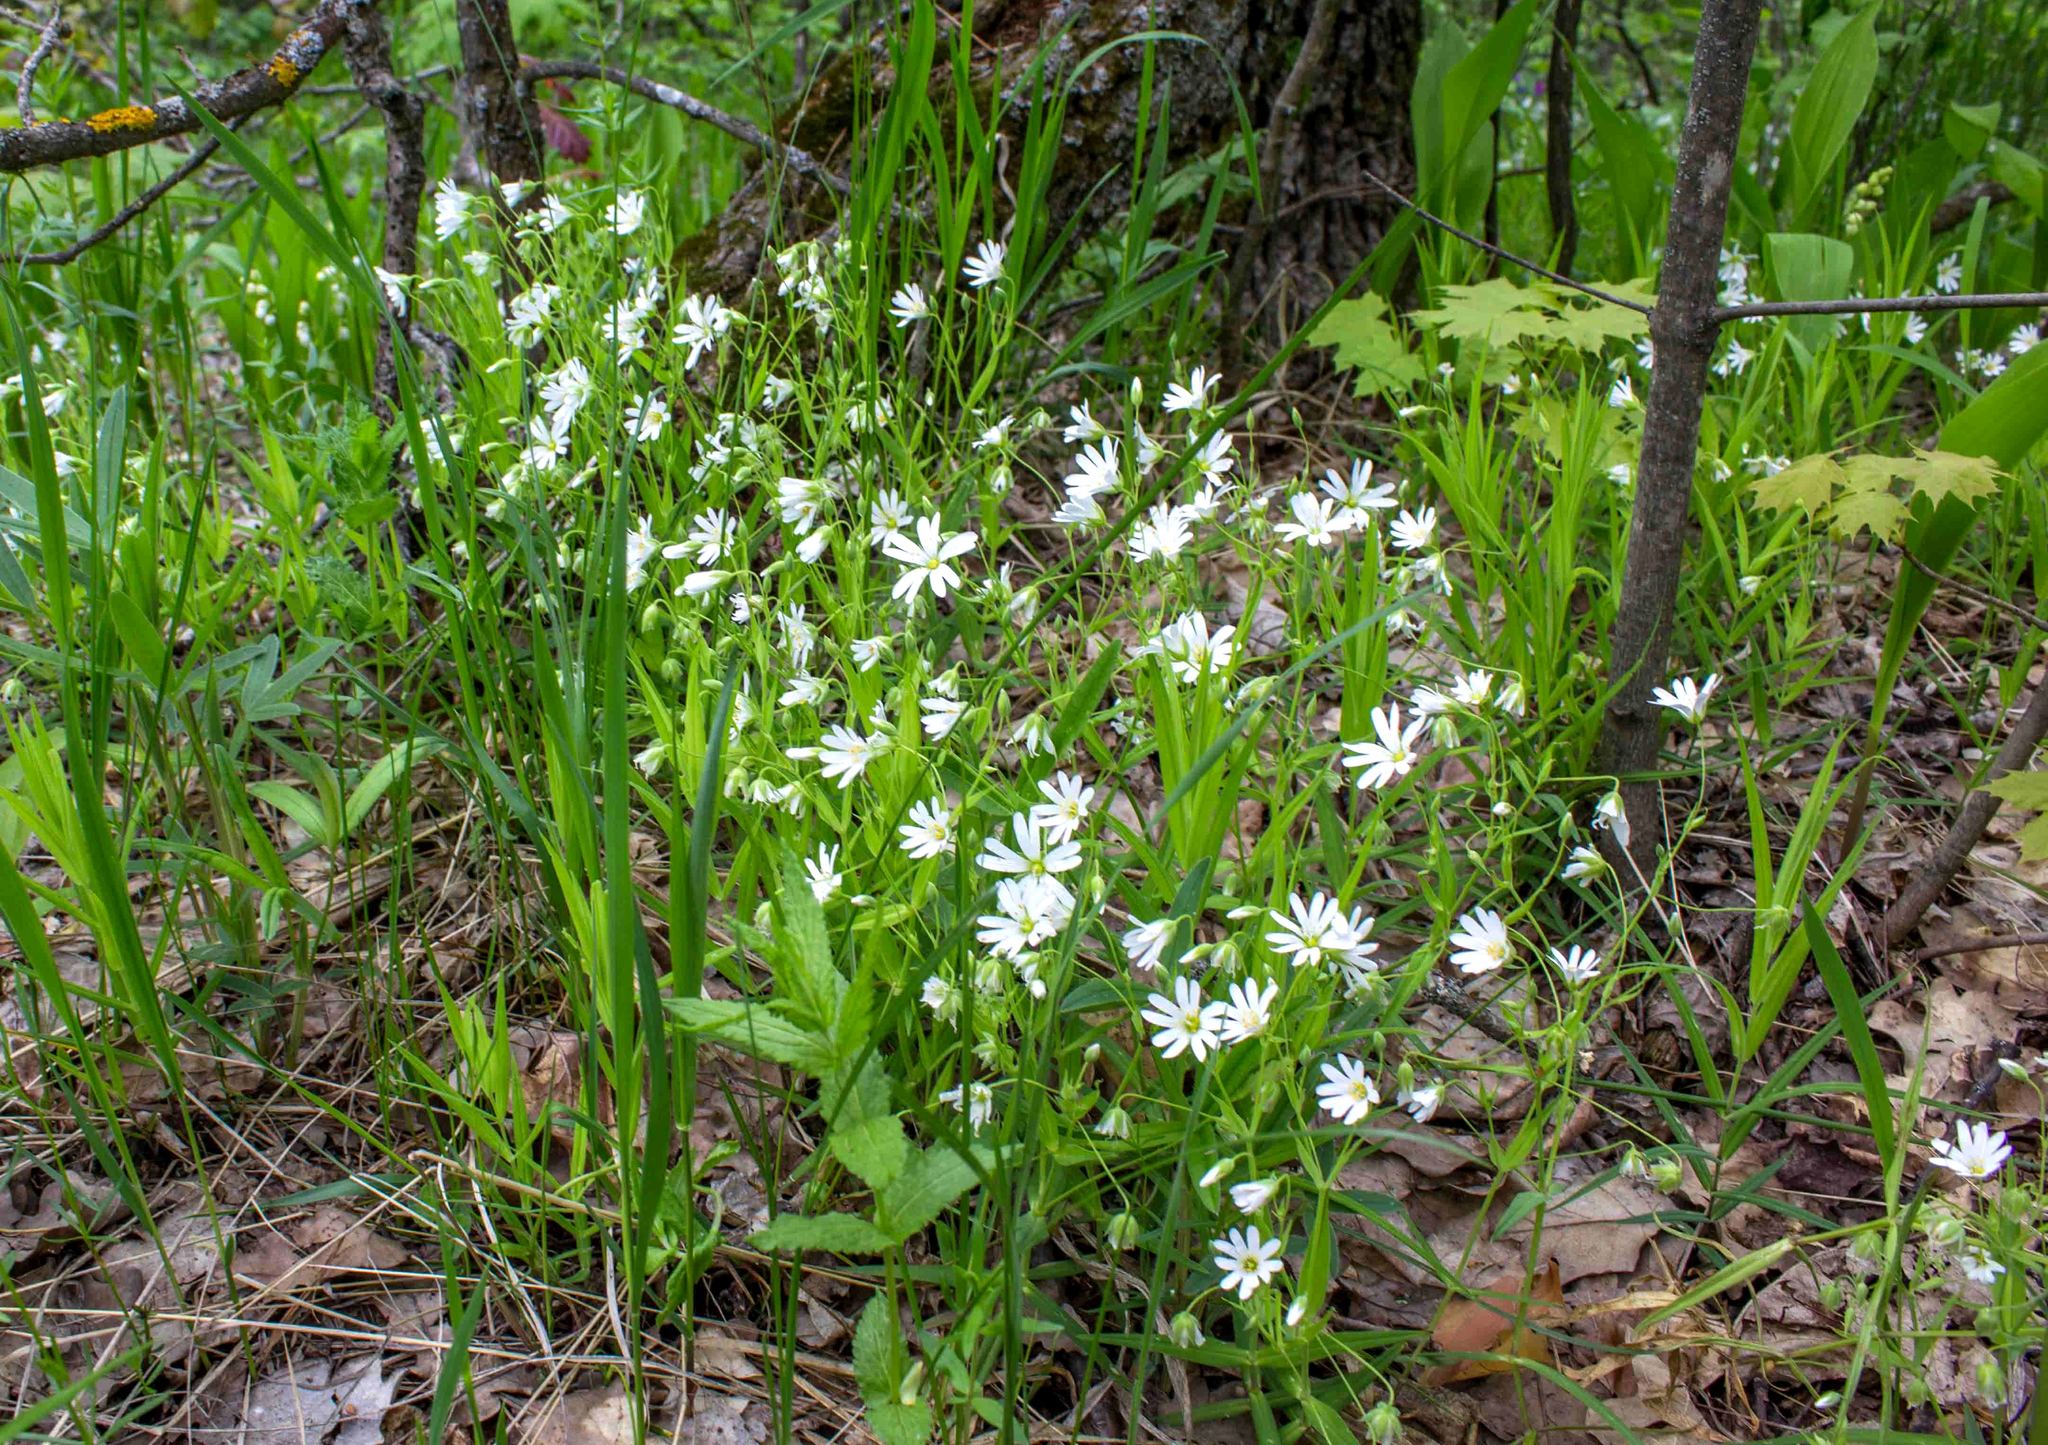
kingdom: Plantae
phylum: Tracheophyta
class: Magnoliopsida
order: Caryophyllales
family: Caryophyllaceae
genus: Rabelera
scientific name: Rabelera holostea
